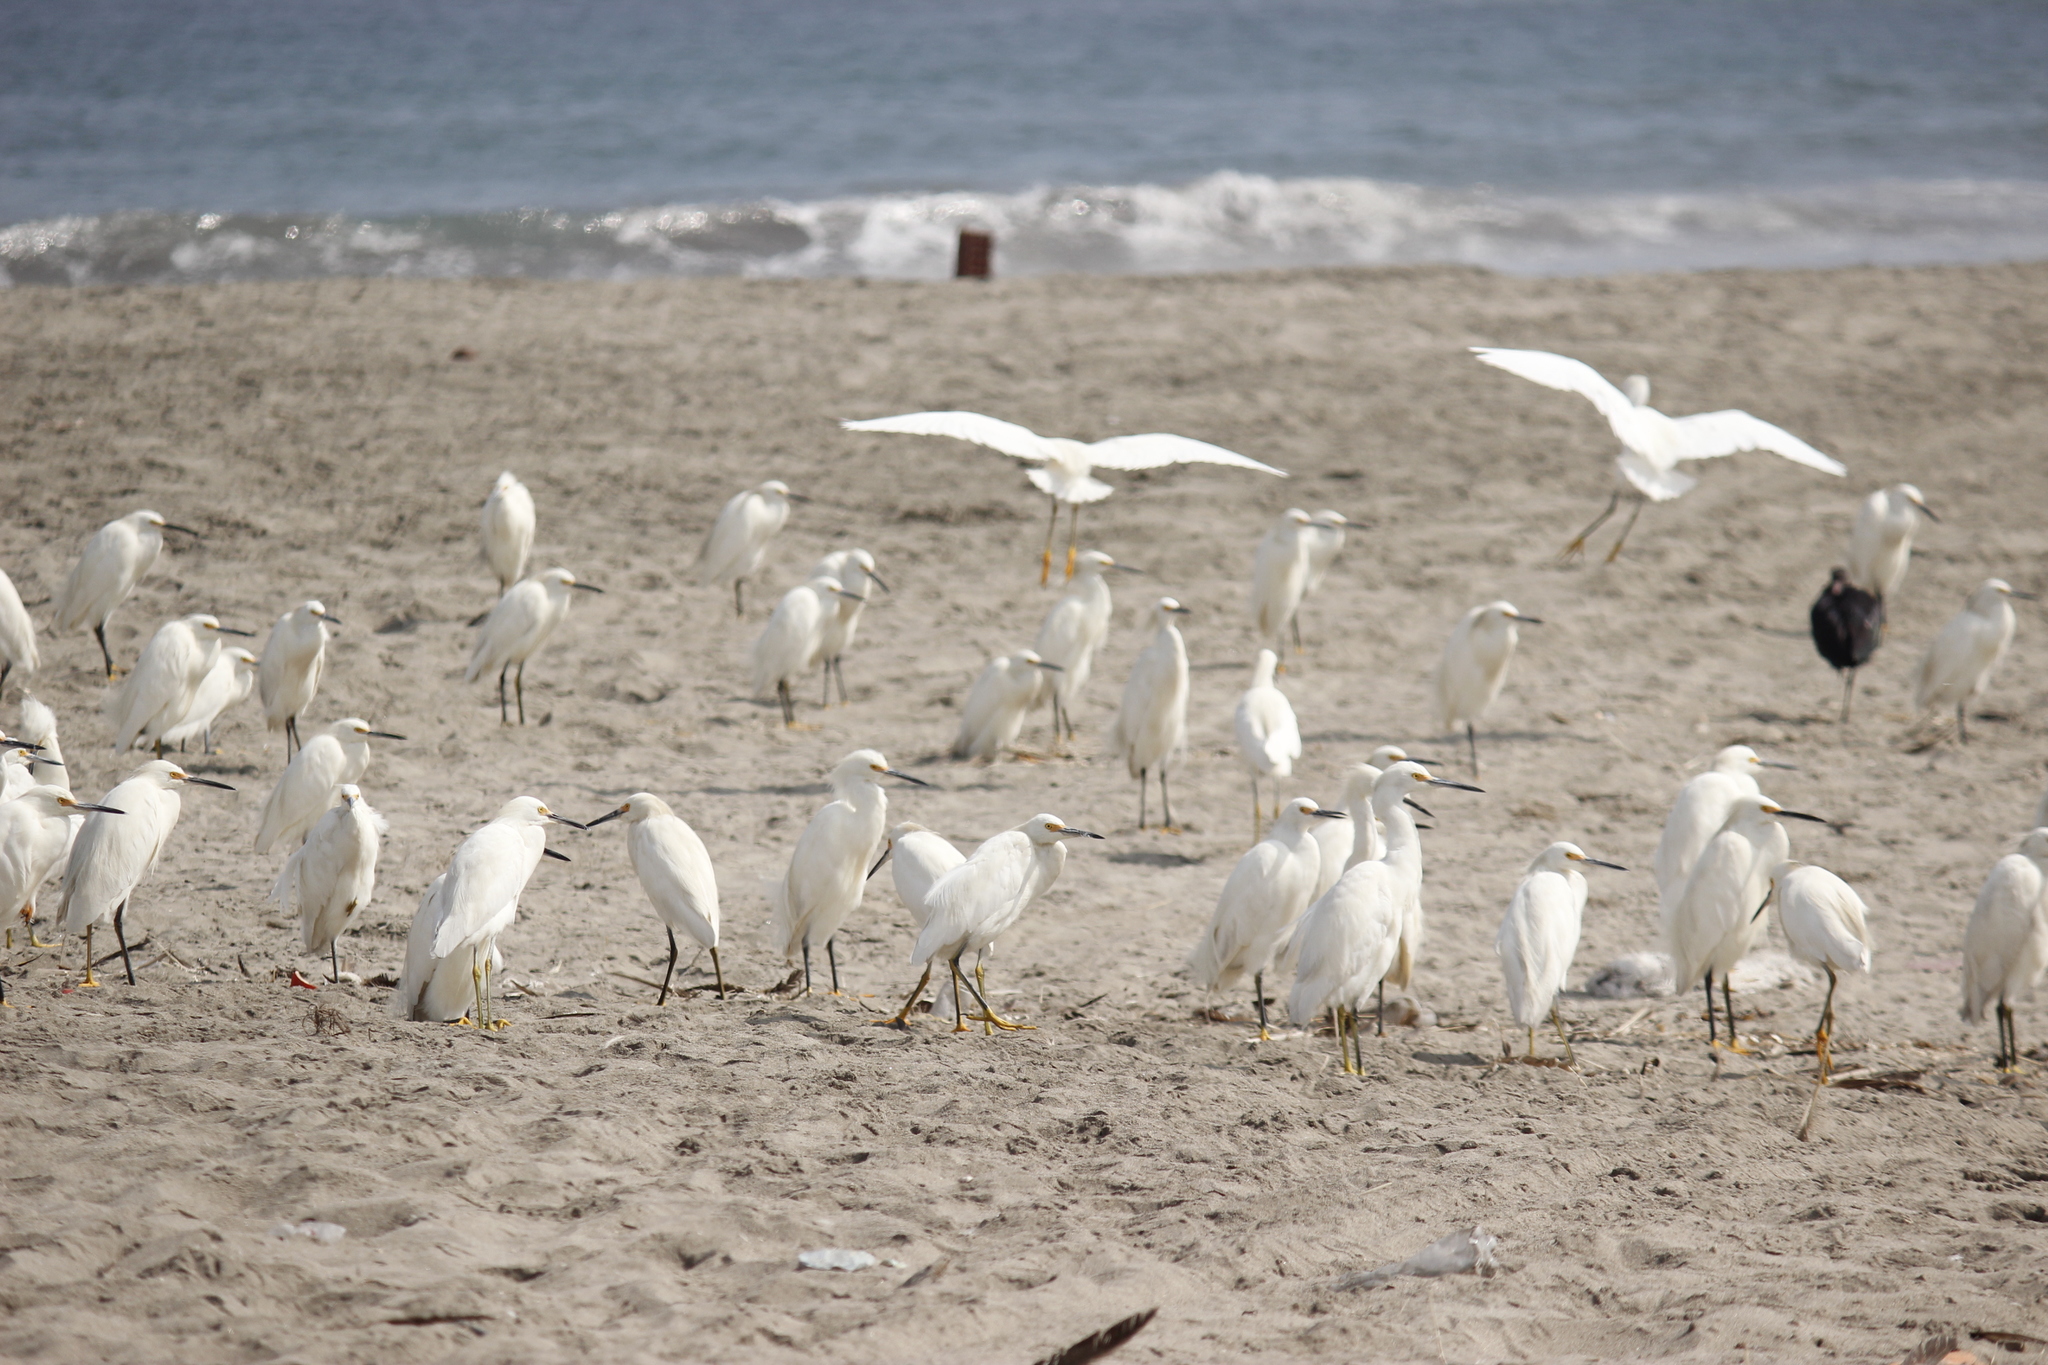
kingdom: Animalia
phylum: Chordata
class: Aves
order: Pelecaniformes
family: Ardeidae
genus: Egretta
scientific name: Egretta thula
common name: Snowy egret
